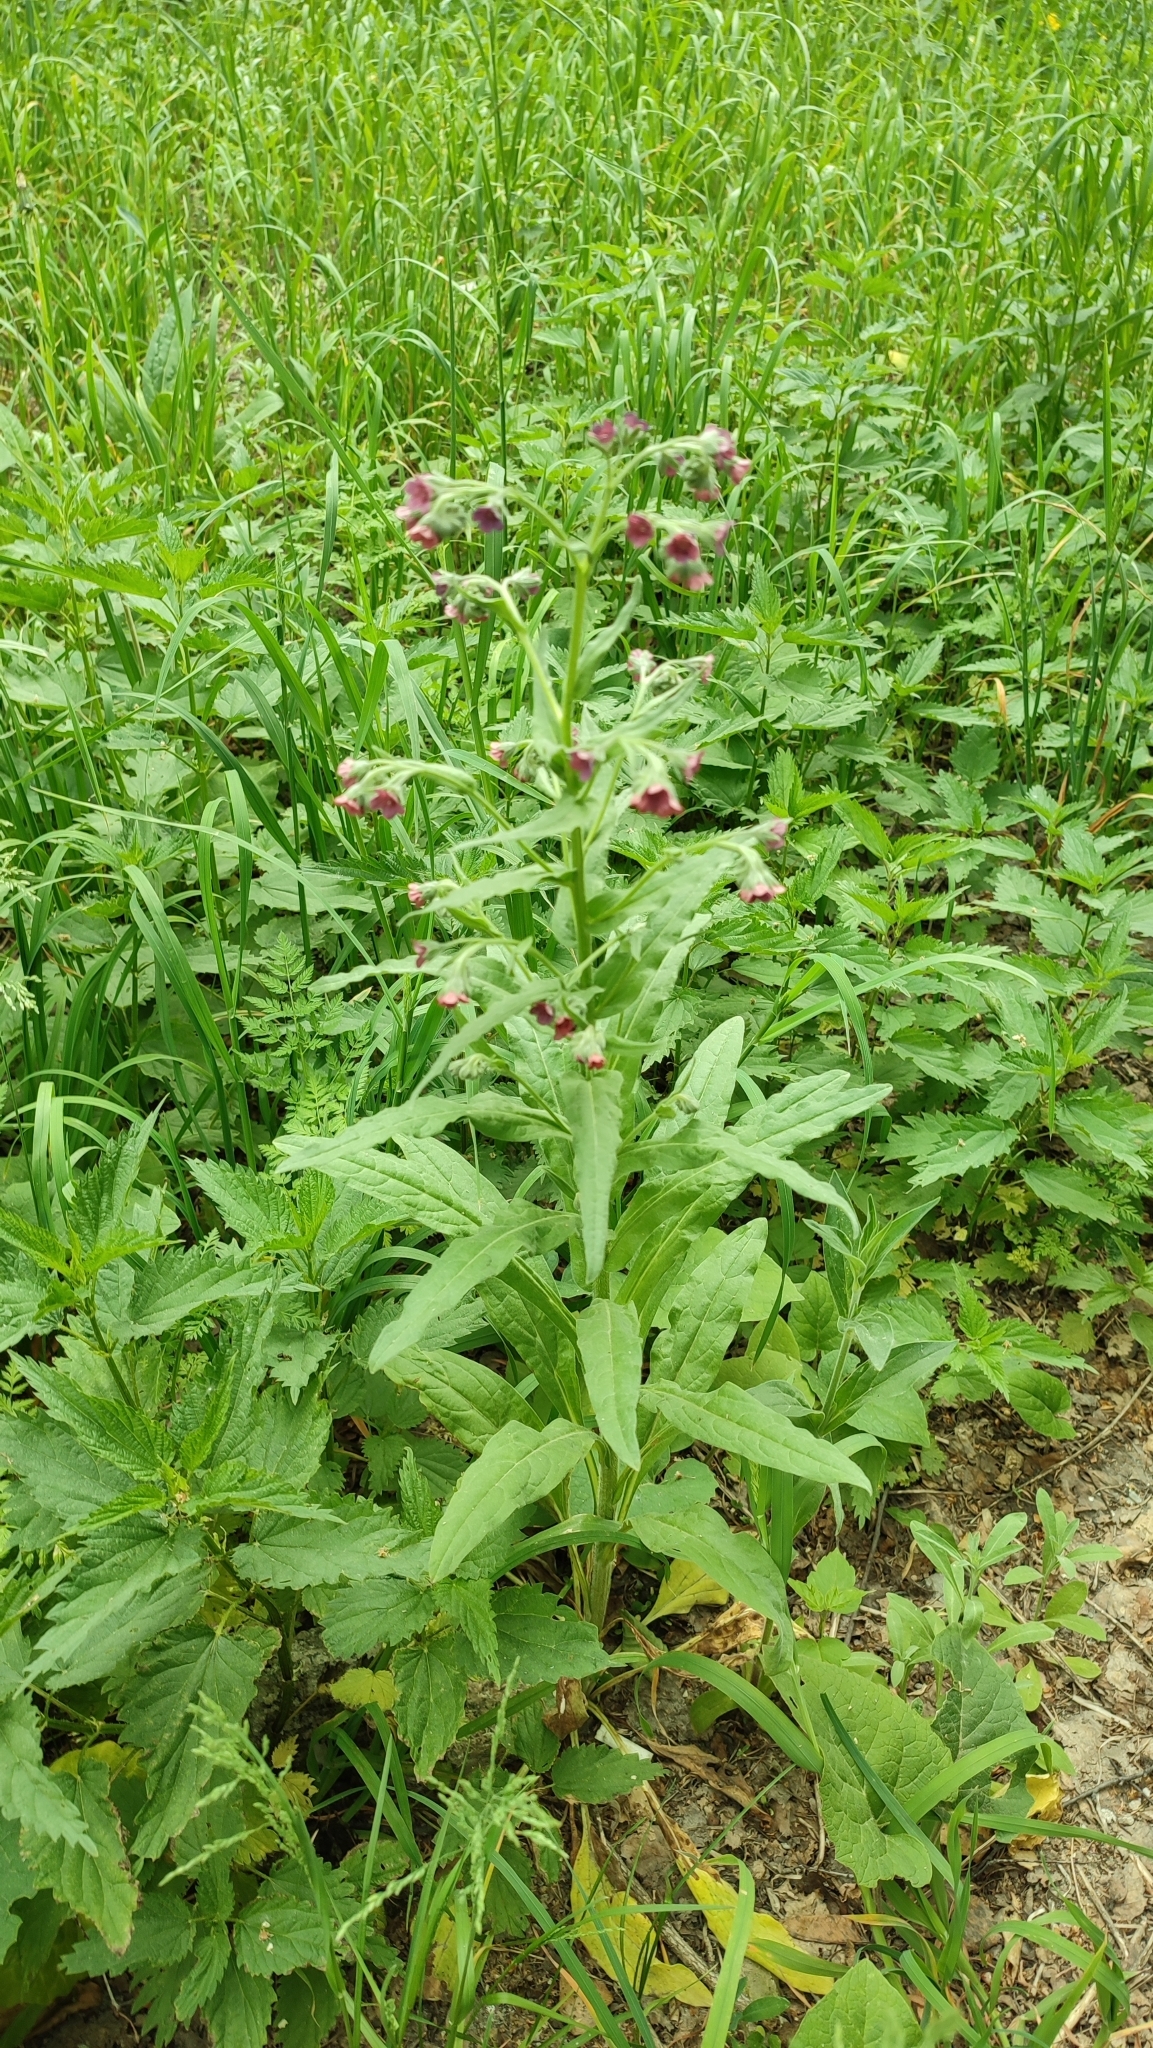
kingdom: Plantae
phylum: Tracheophyta
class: Magnoliopsida
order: Boraginales
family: Boraginaceae
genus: Cynoglossum
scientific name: Cynoglossum officinale
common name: Hound's-tongue
